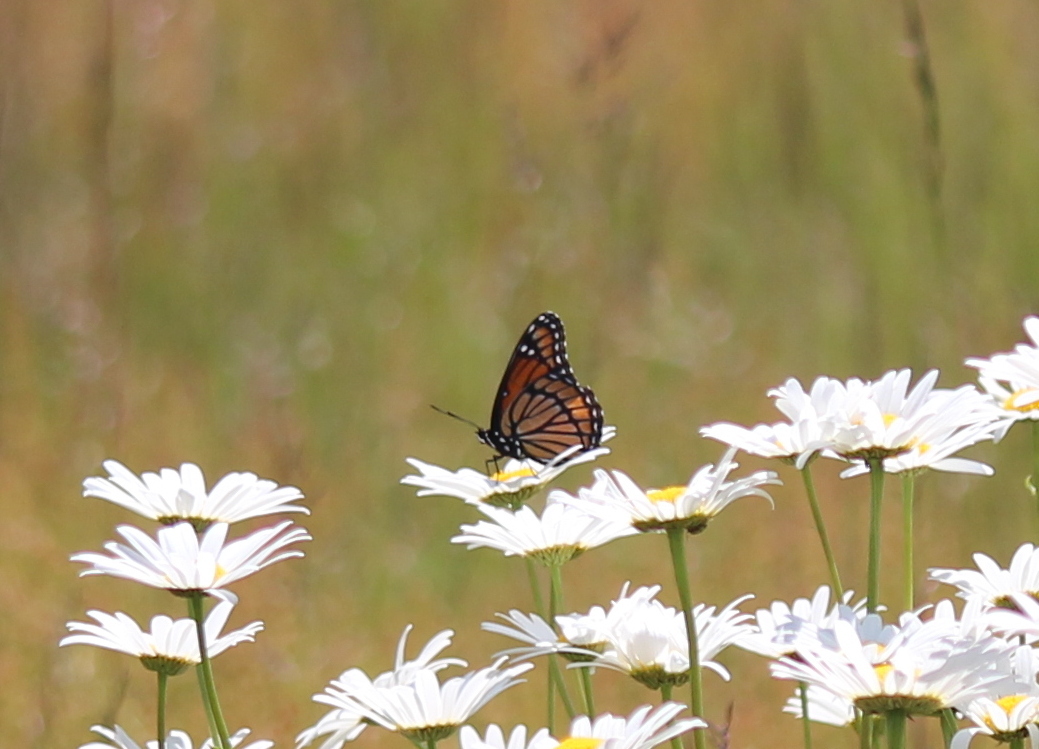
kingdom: Animalia
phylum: Arthropoda
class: Insecta
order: Lepidoptera
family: Nymphalidae
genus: Limenitis
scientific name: Limenitis archippus
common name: Viceroy
